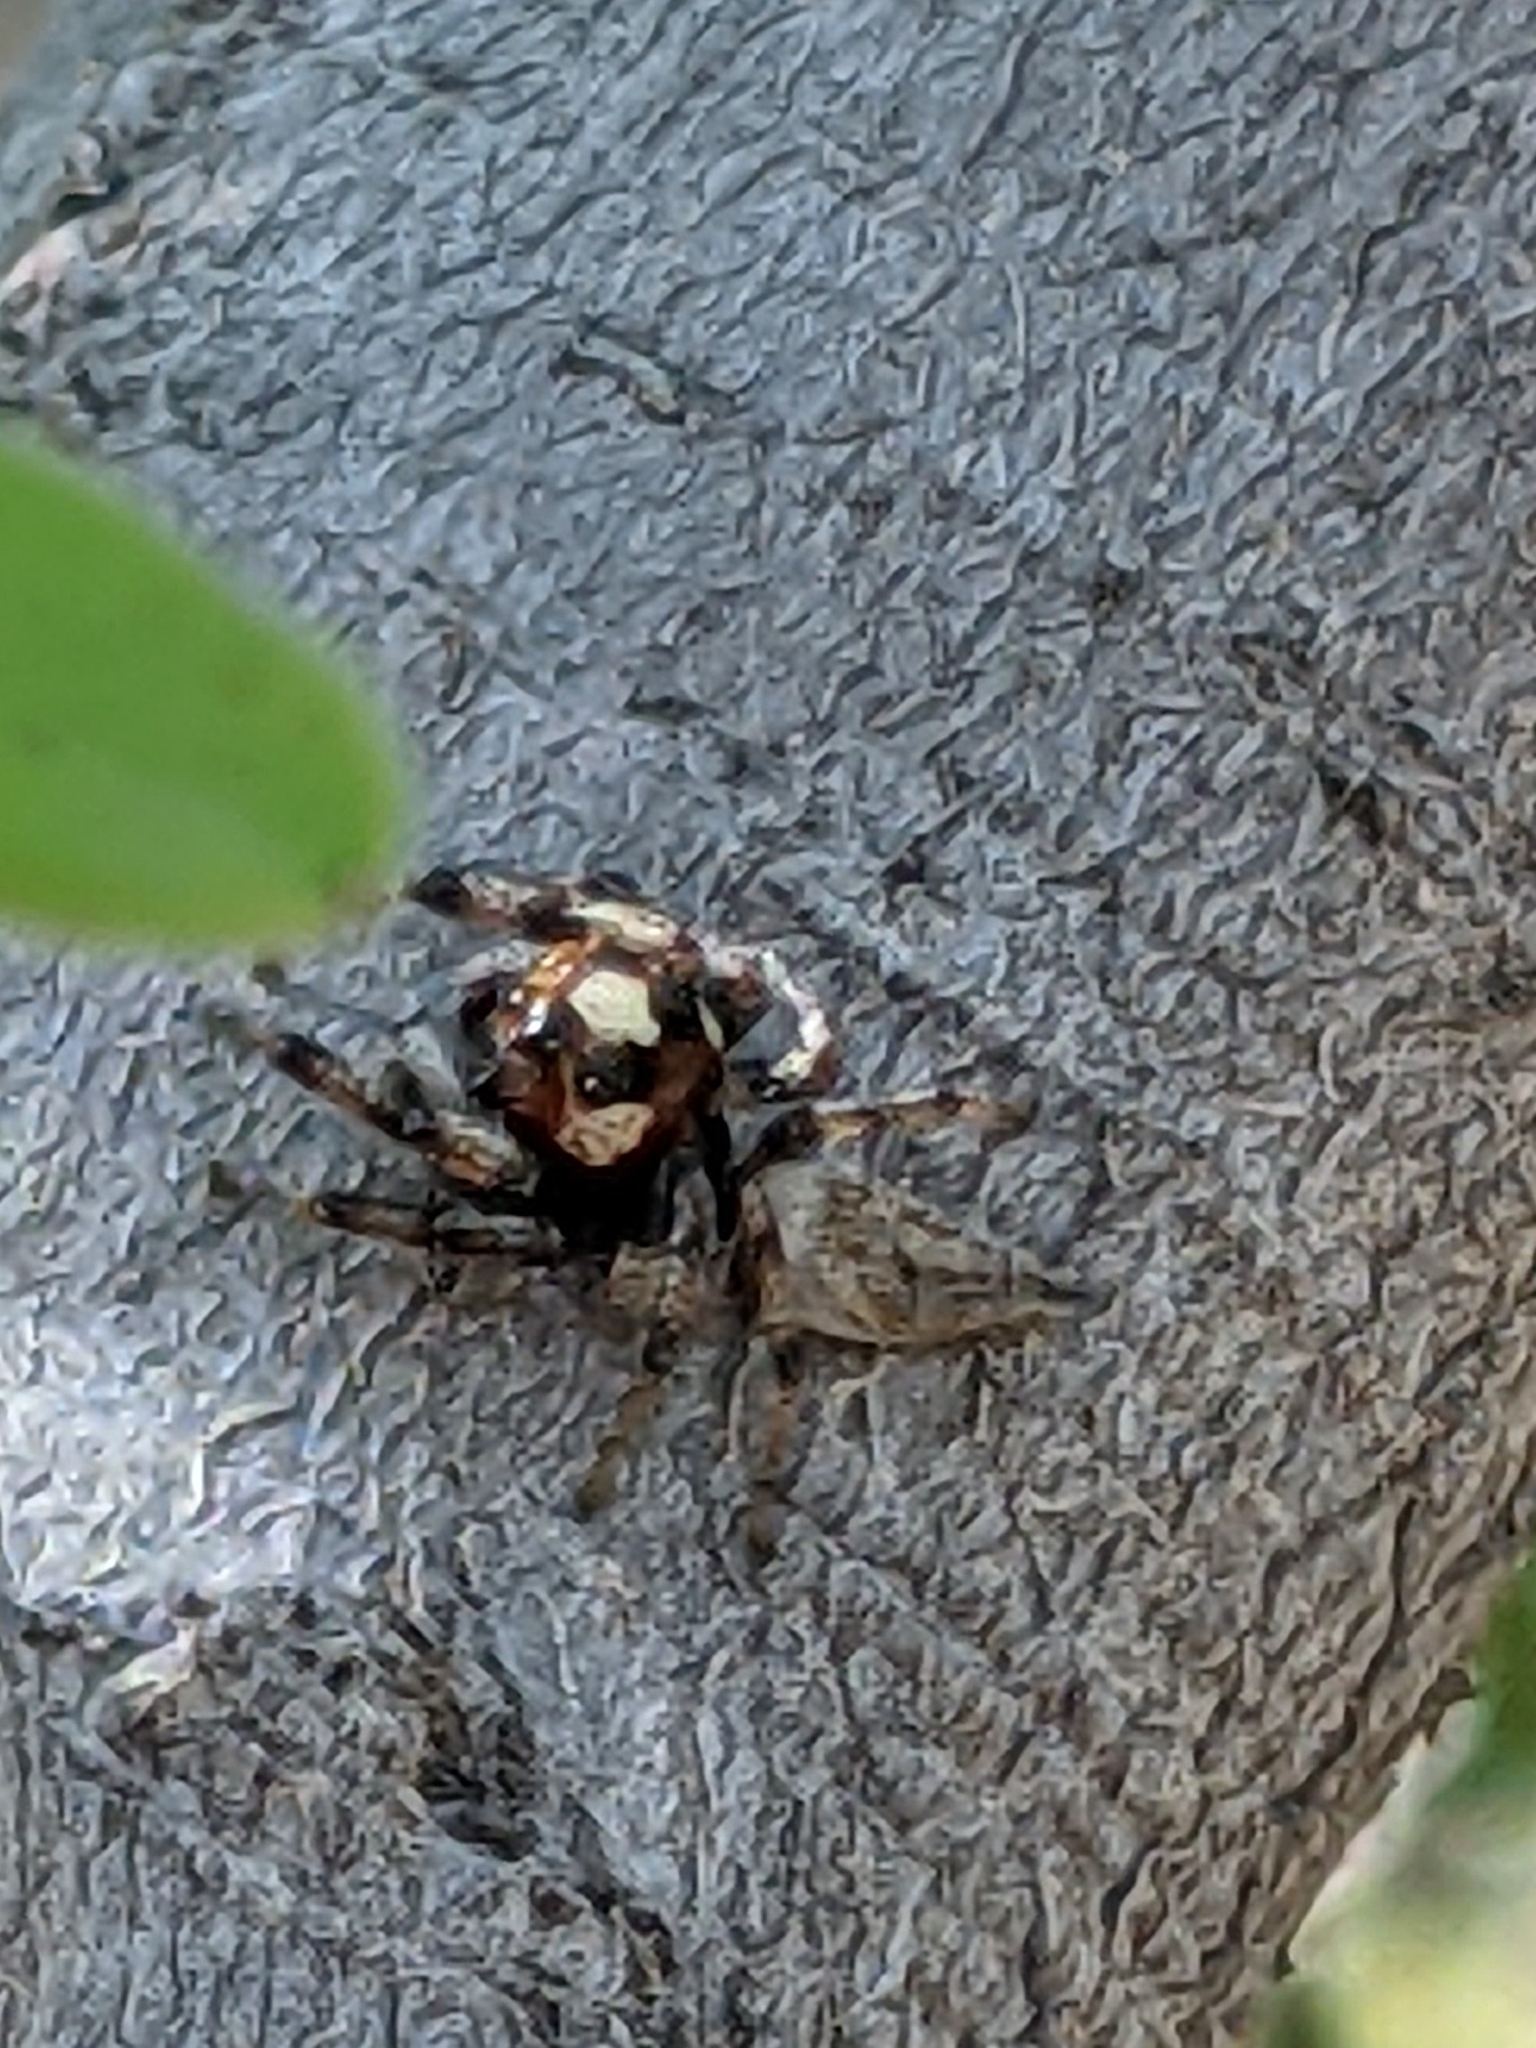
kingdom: Animalia
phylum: Arthropoda
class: Arachnida
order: Araneae
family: Salticidae
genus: Colonus
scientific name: Colonus hesperus
